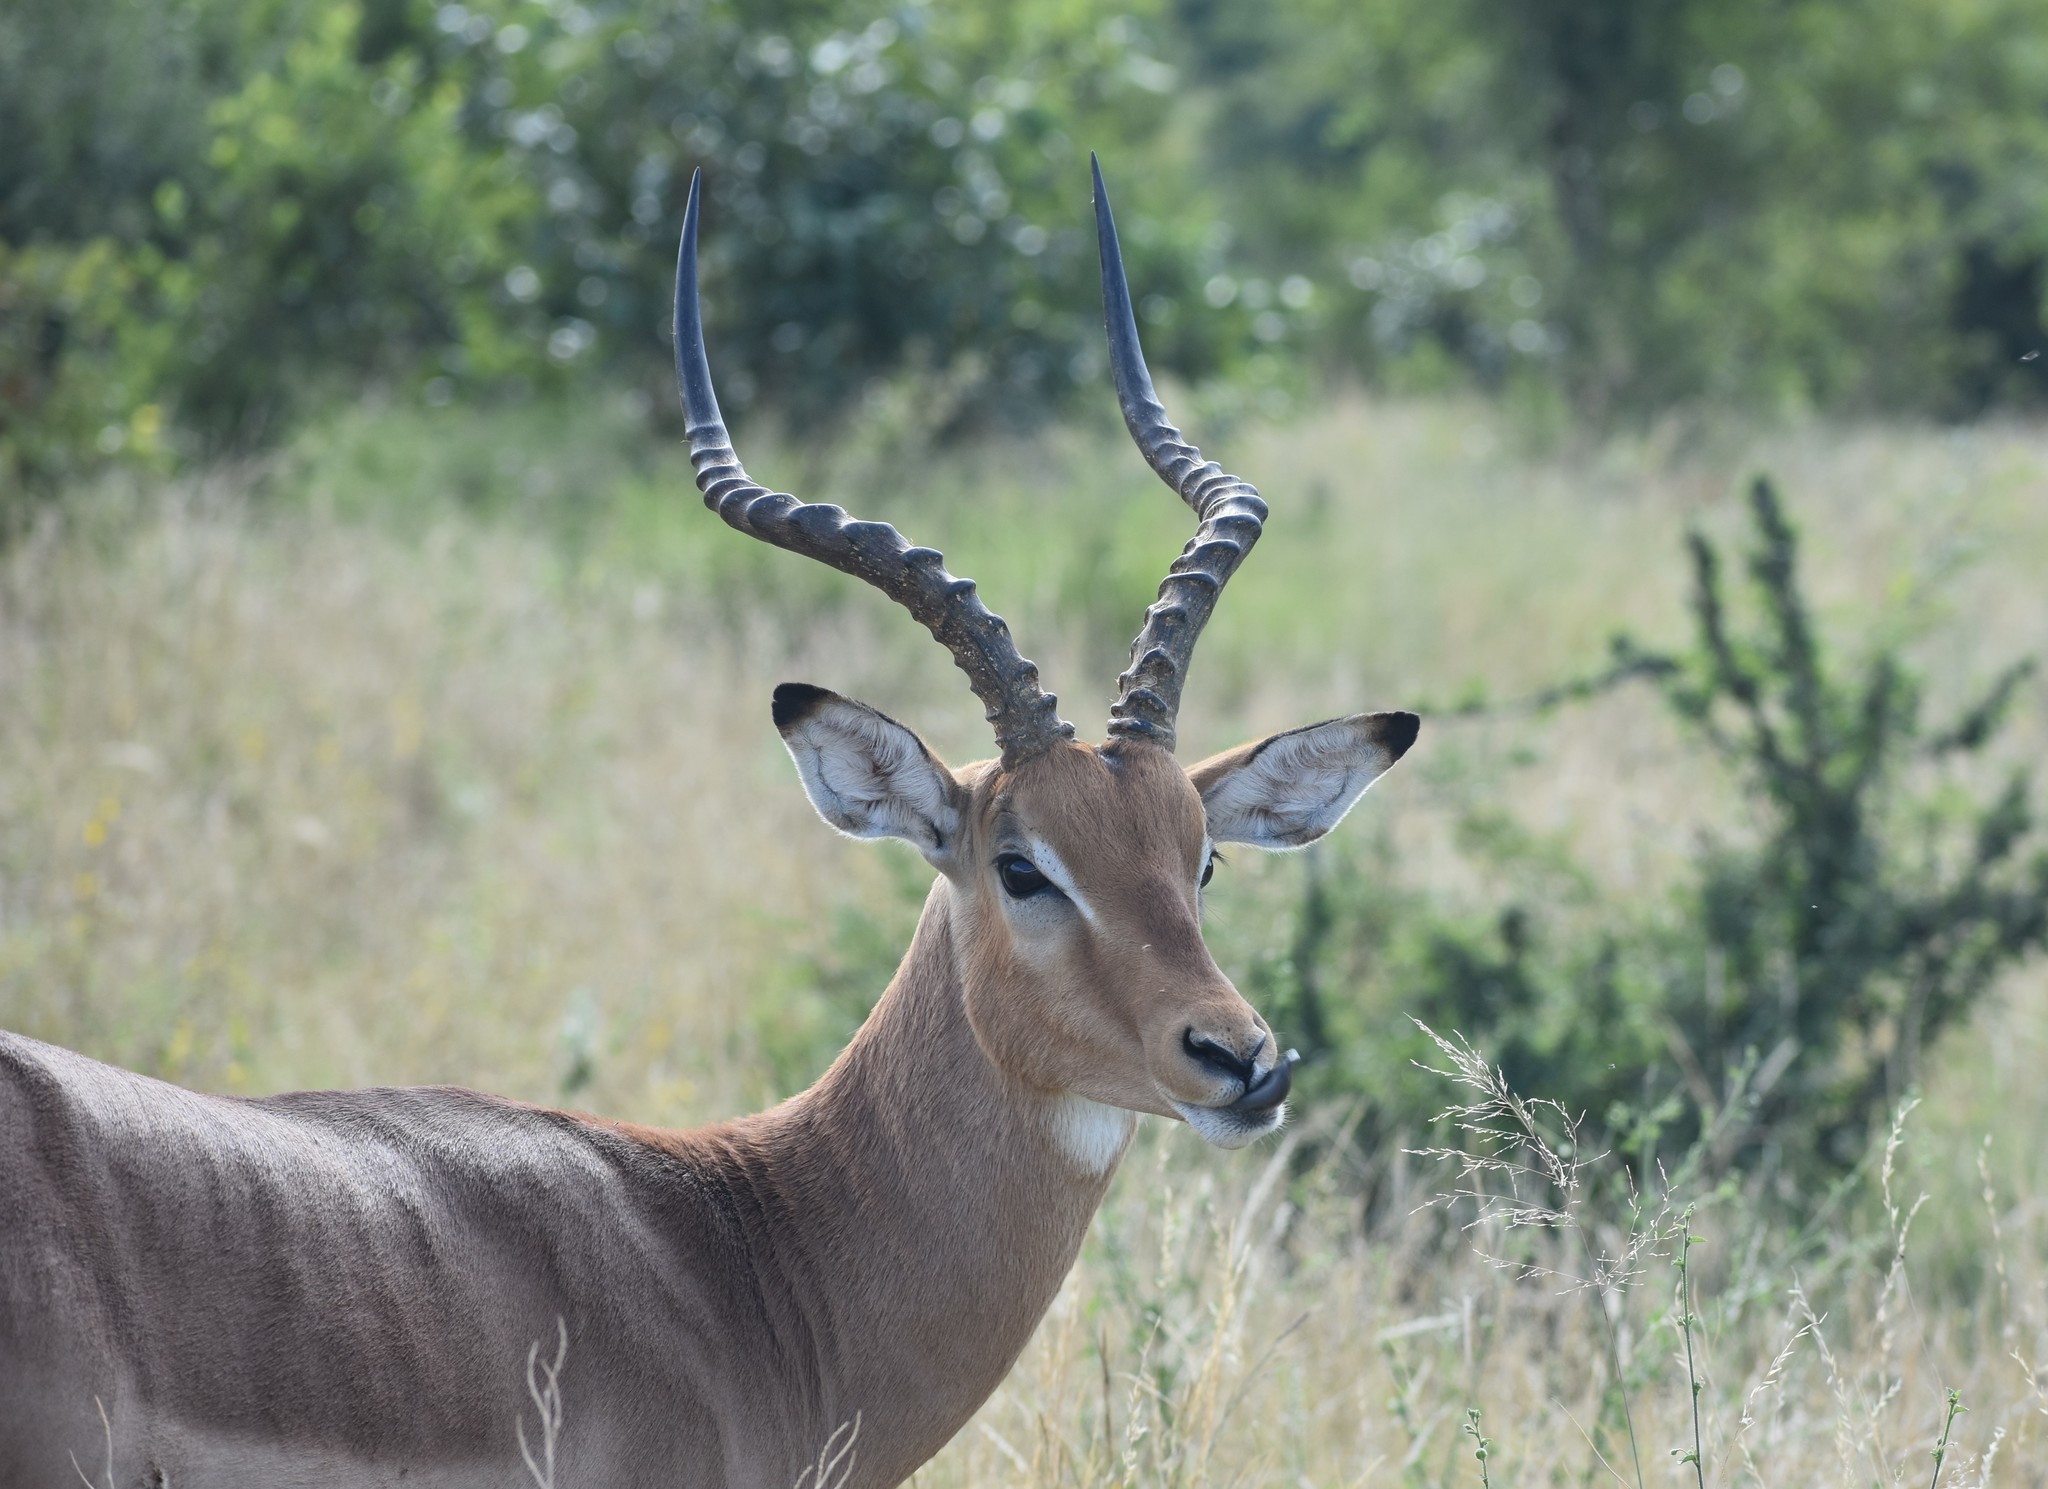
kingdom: Animalia
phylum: Chordata
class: Mammalia
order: Artiodactyla
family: Bovidae
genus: Aepyceros
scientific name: Aepyceros melampus
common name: Impala
